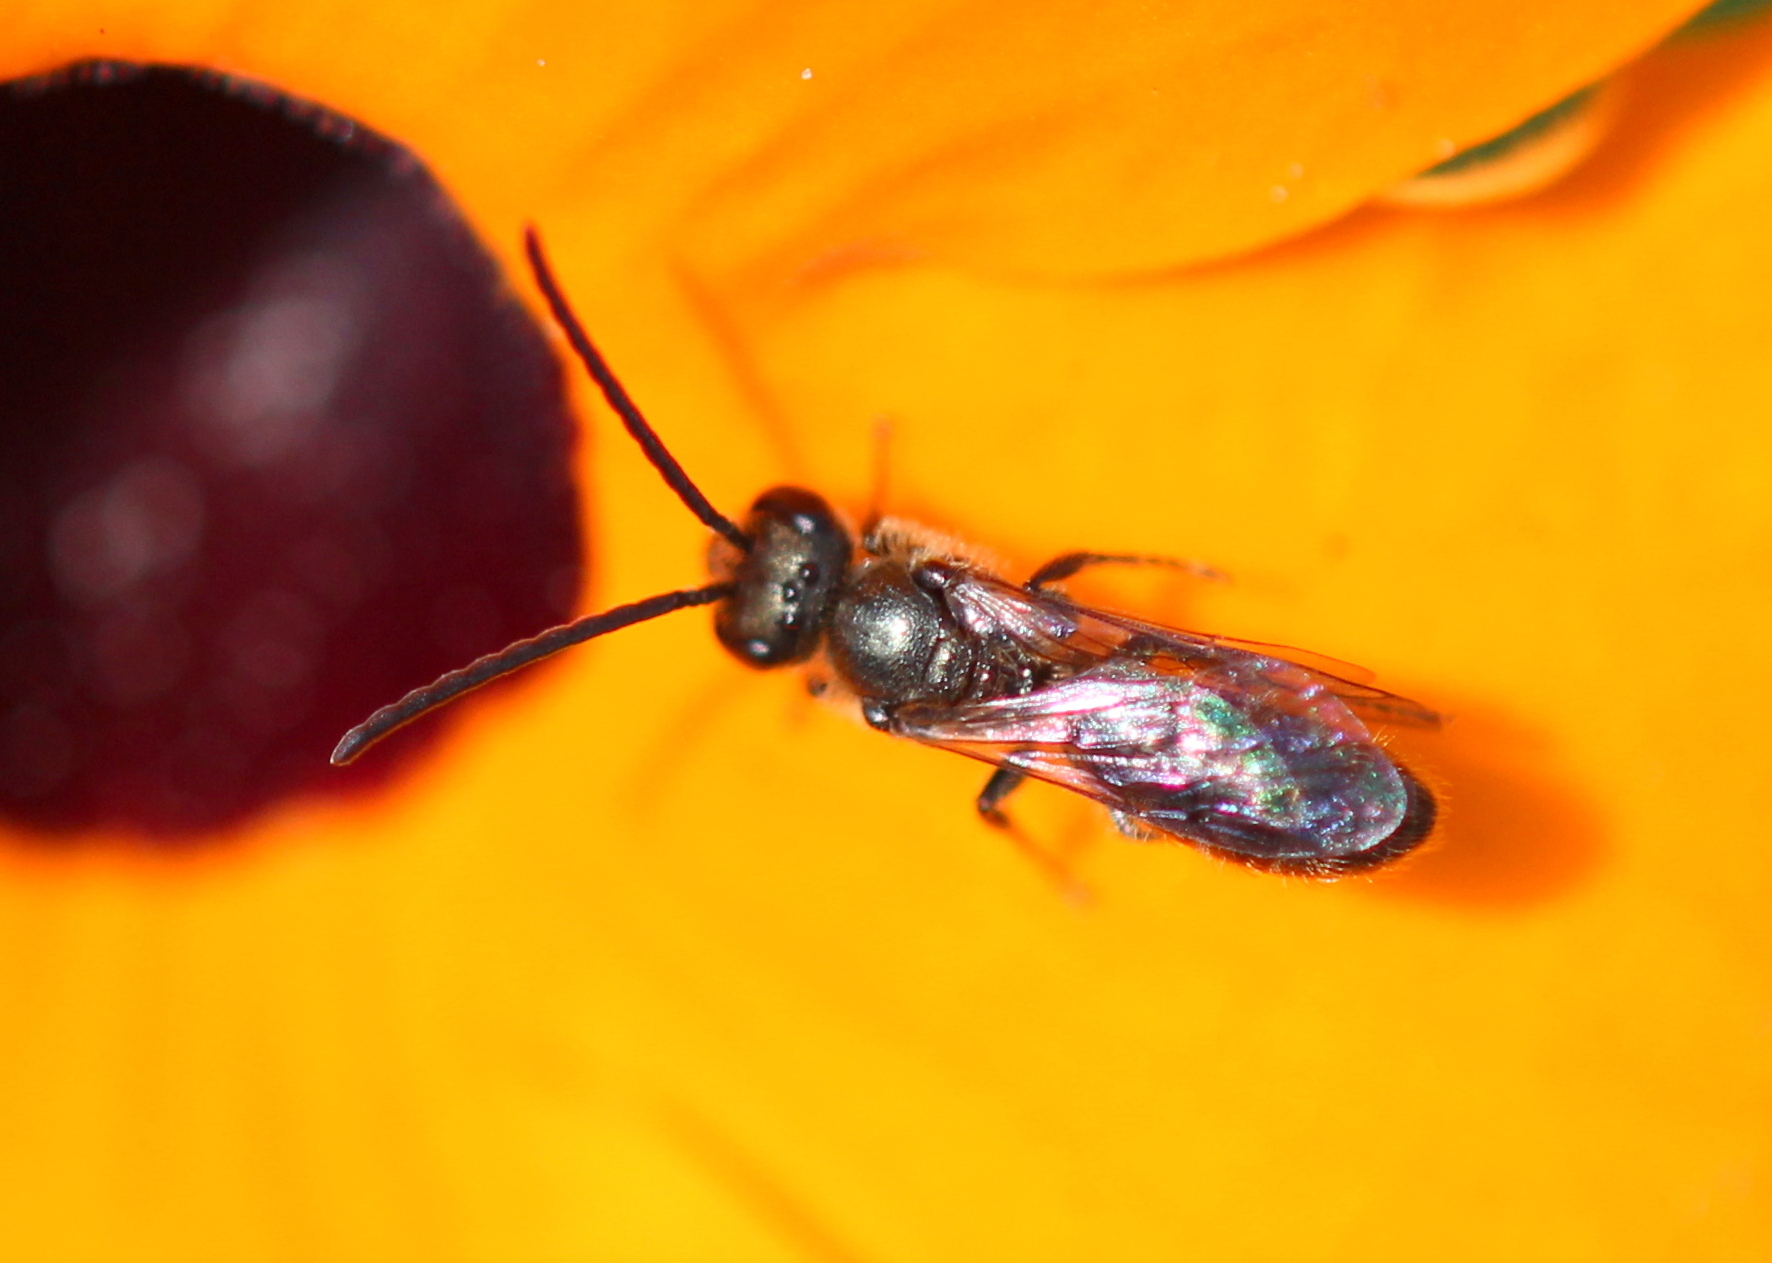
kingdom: Animalia
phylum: Arthropoda
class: Insecta
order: Hymenoptera
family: Halictidae
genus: Dialictus
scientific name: Dialictus
